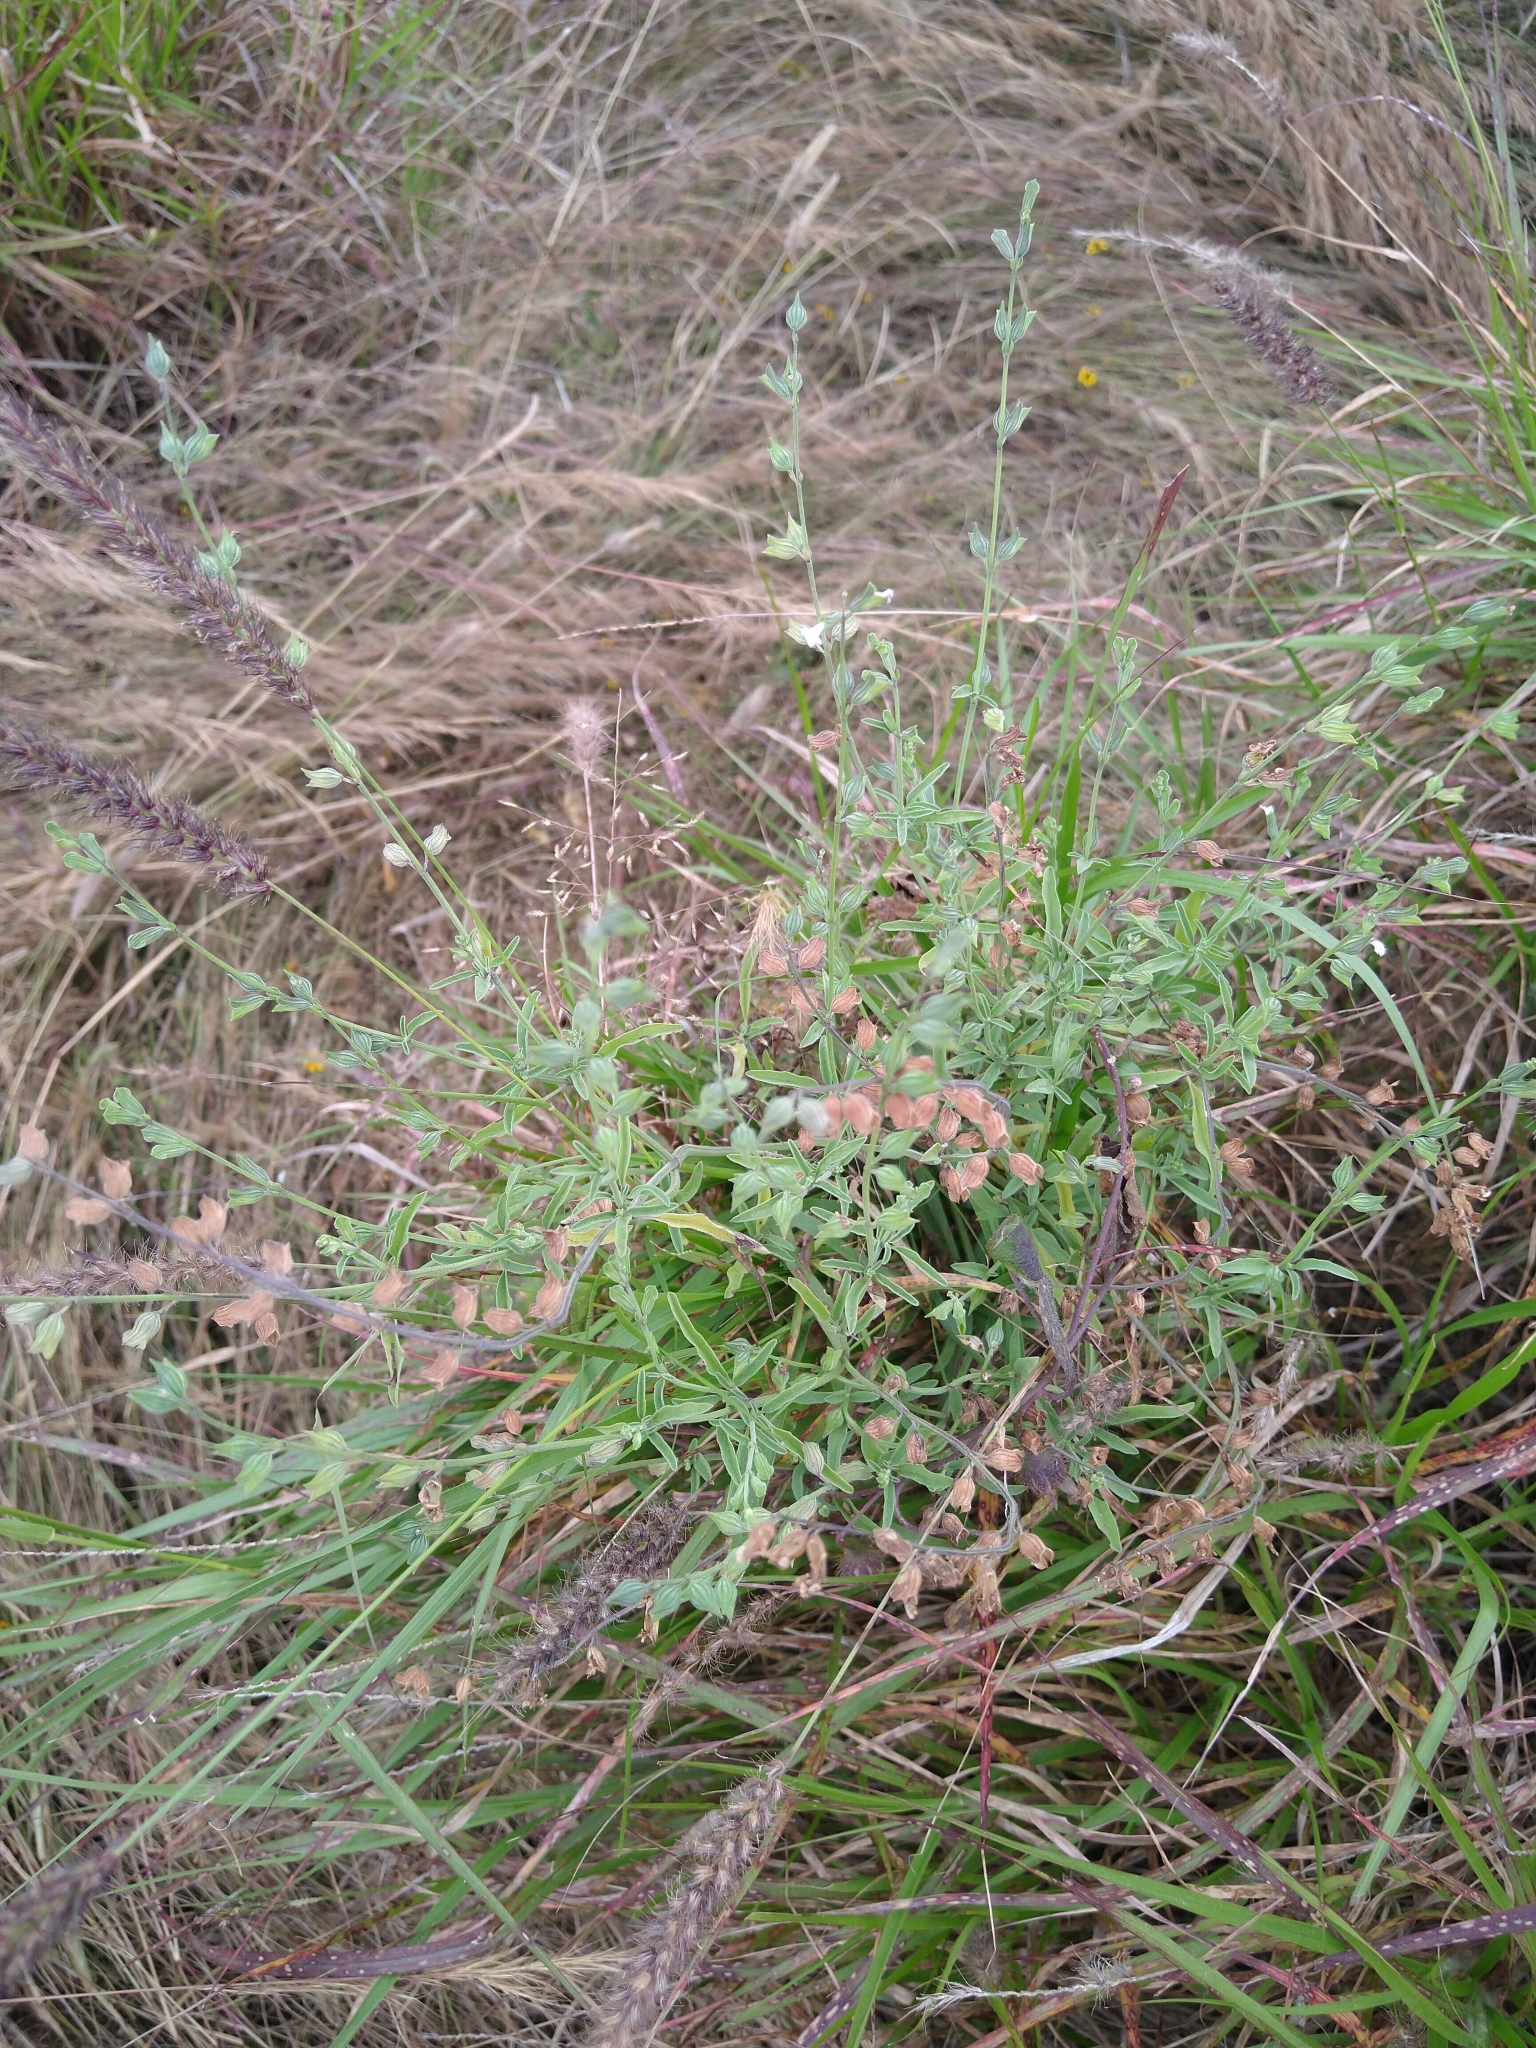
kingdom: Plantae
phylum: Tracheophyta
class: Magnoliopsida
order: Lamiales
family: Lamiaceae
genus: Salvia
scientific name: Salvia reflexa
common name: Mintweed
